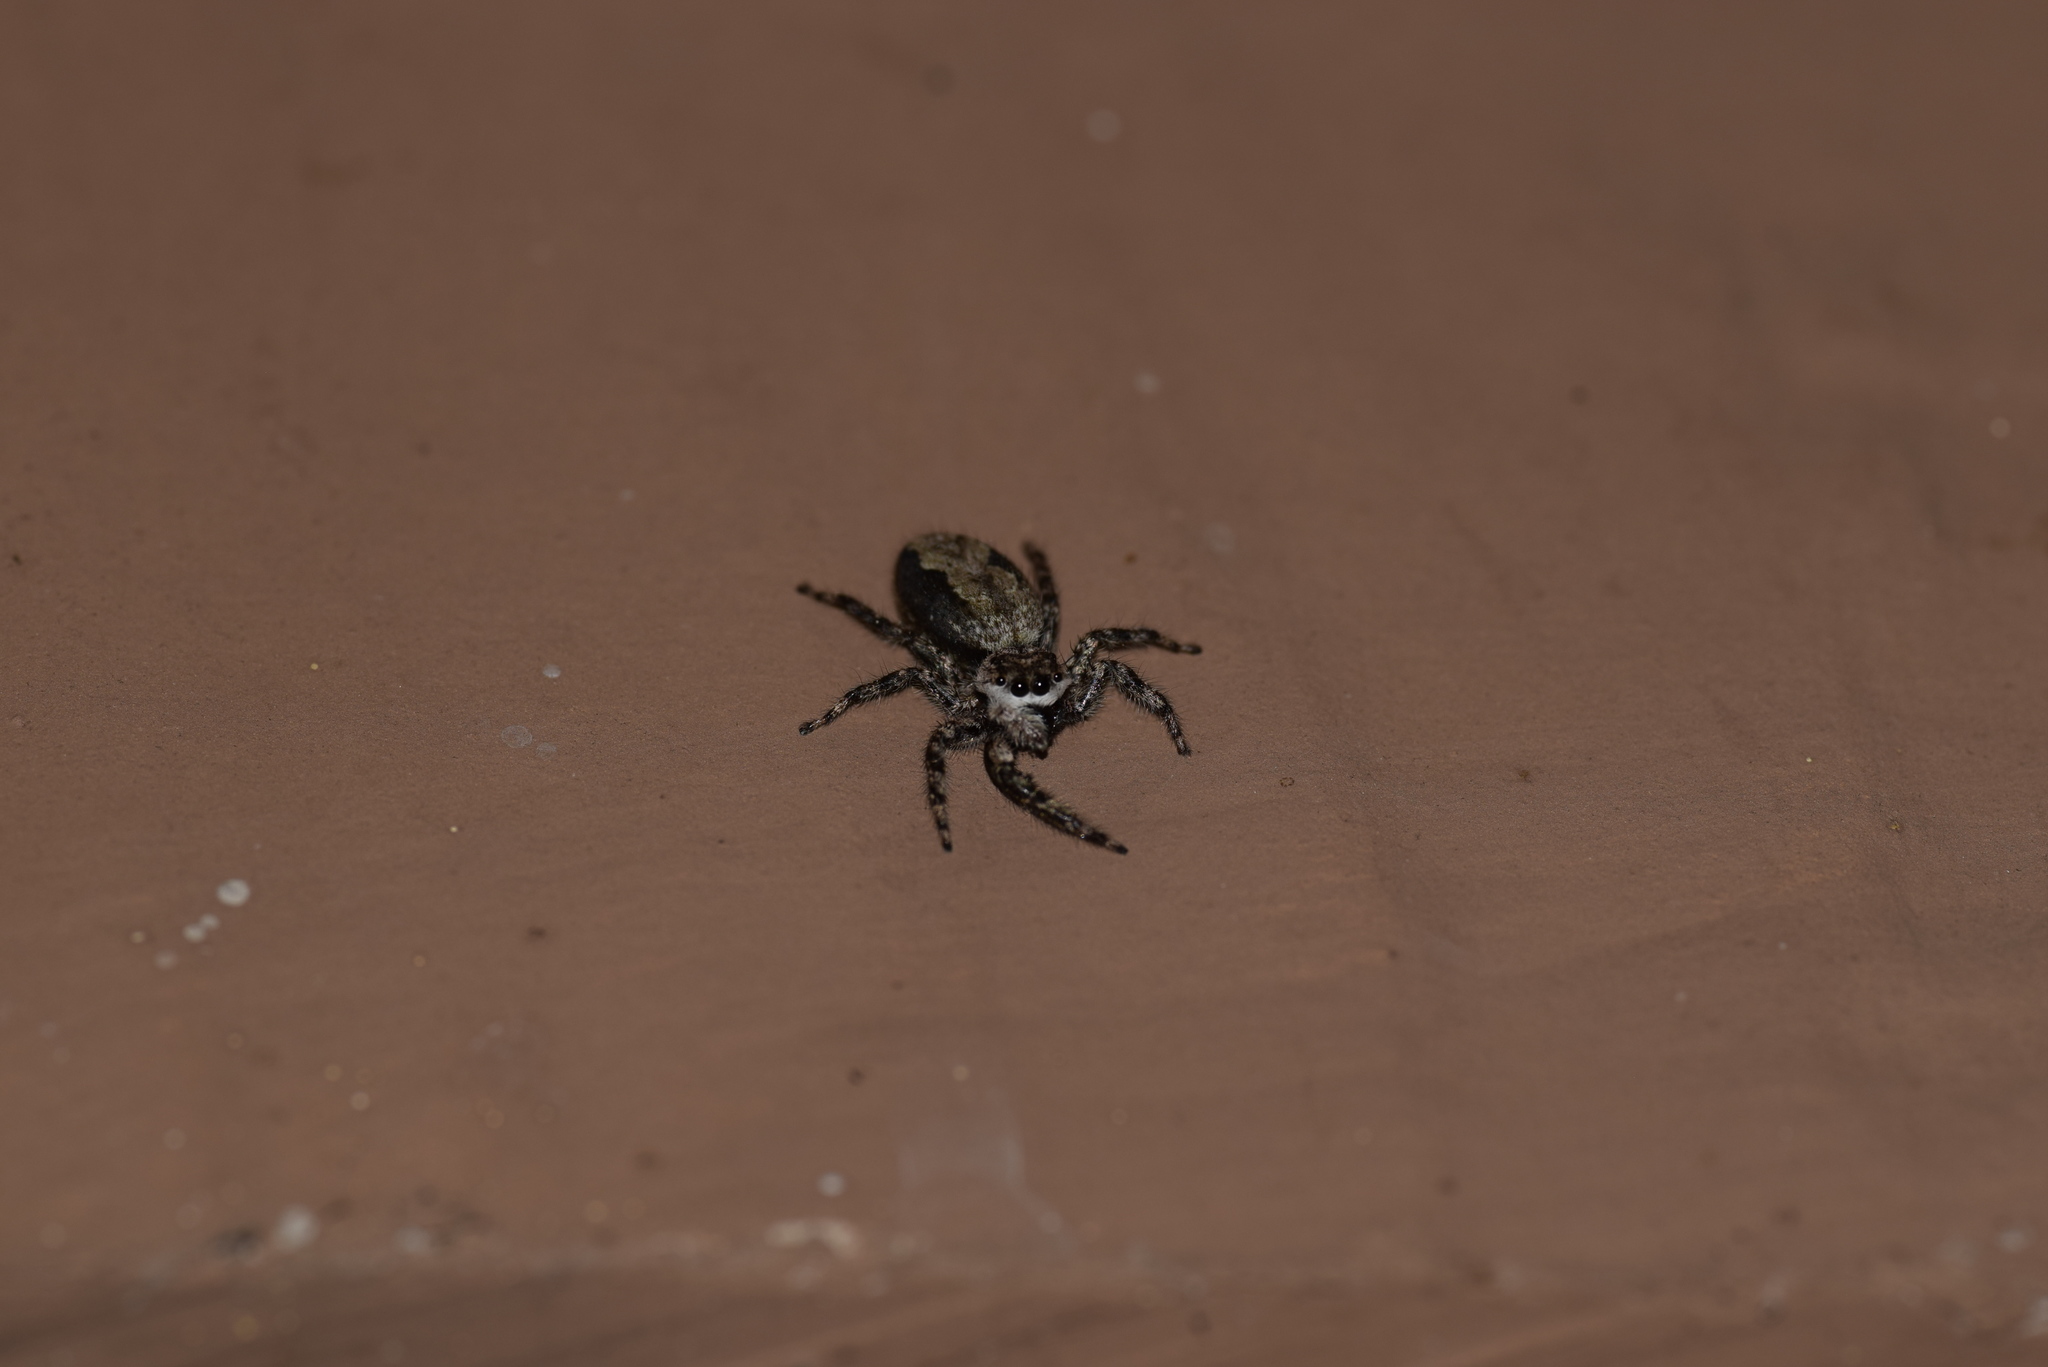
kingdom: Animalia
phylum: Arthropoda
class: Arachnida
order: Araneae
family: Salticidae
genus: Platycryptus
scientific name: Platycryptus undatus
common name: Tan jumping spider
